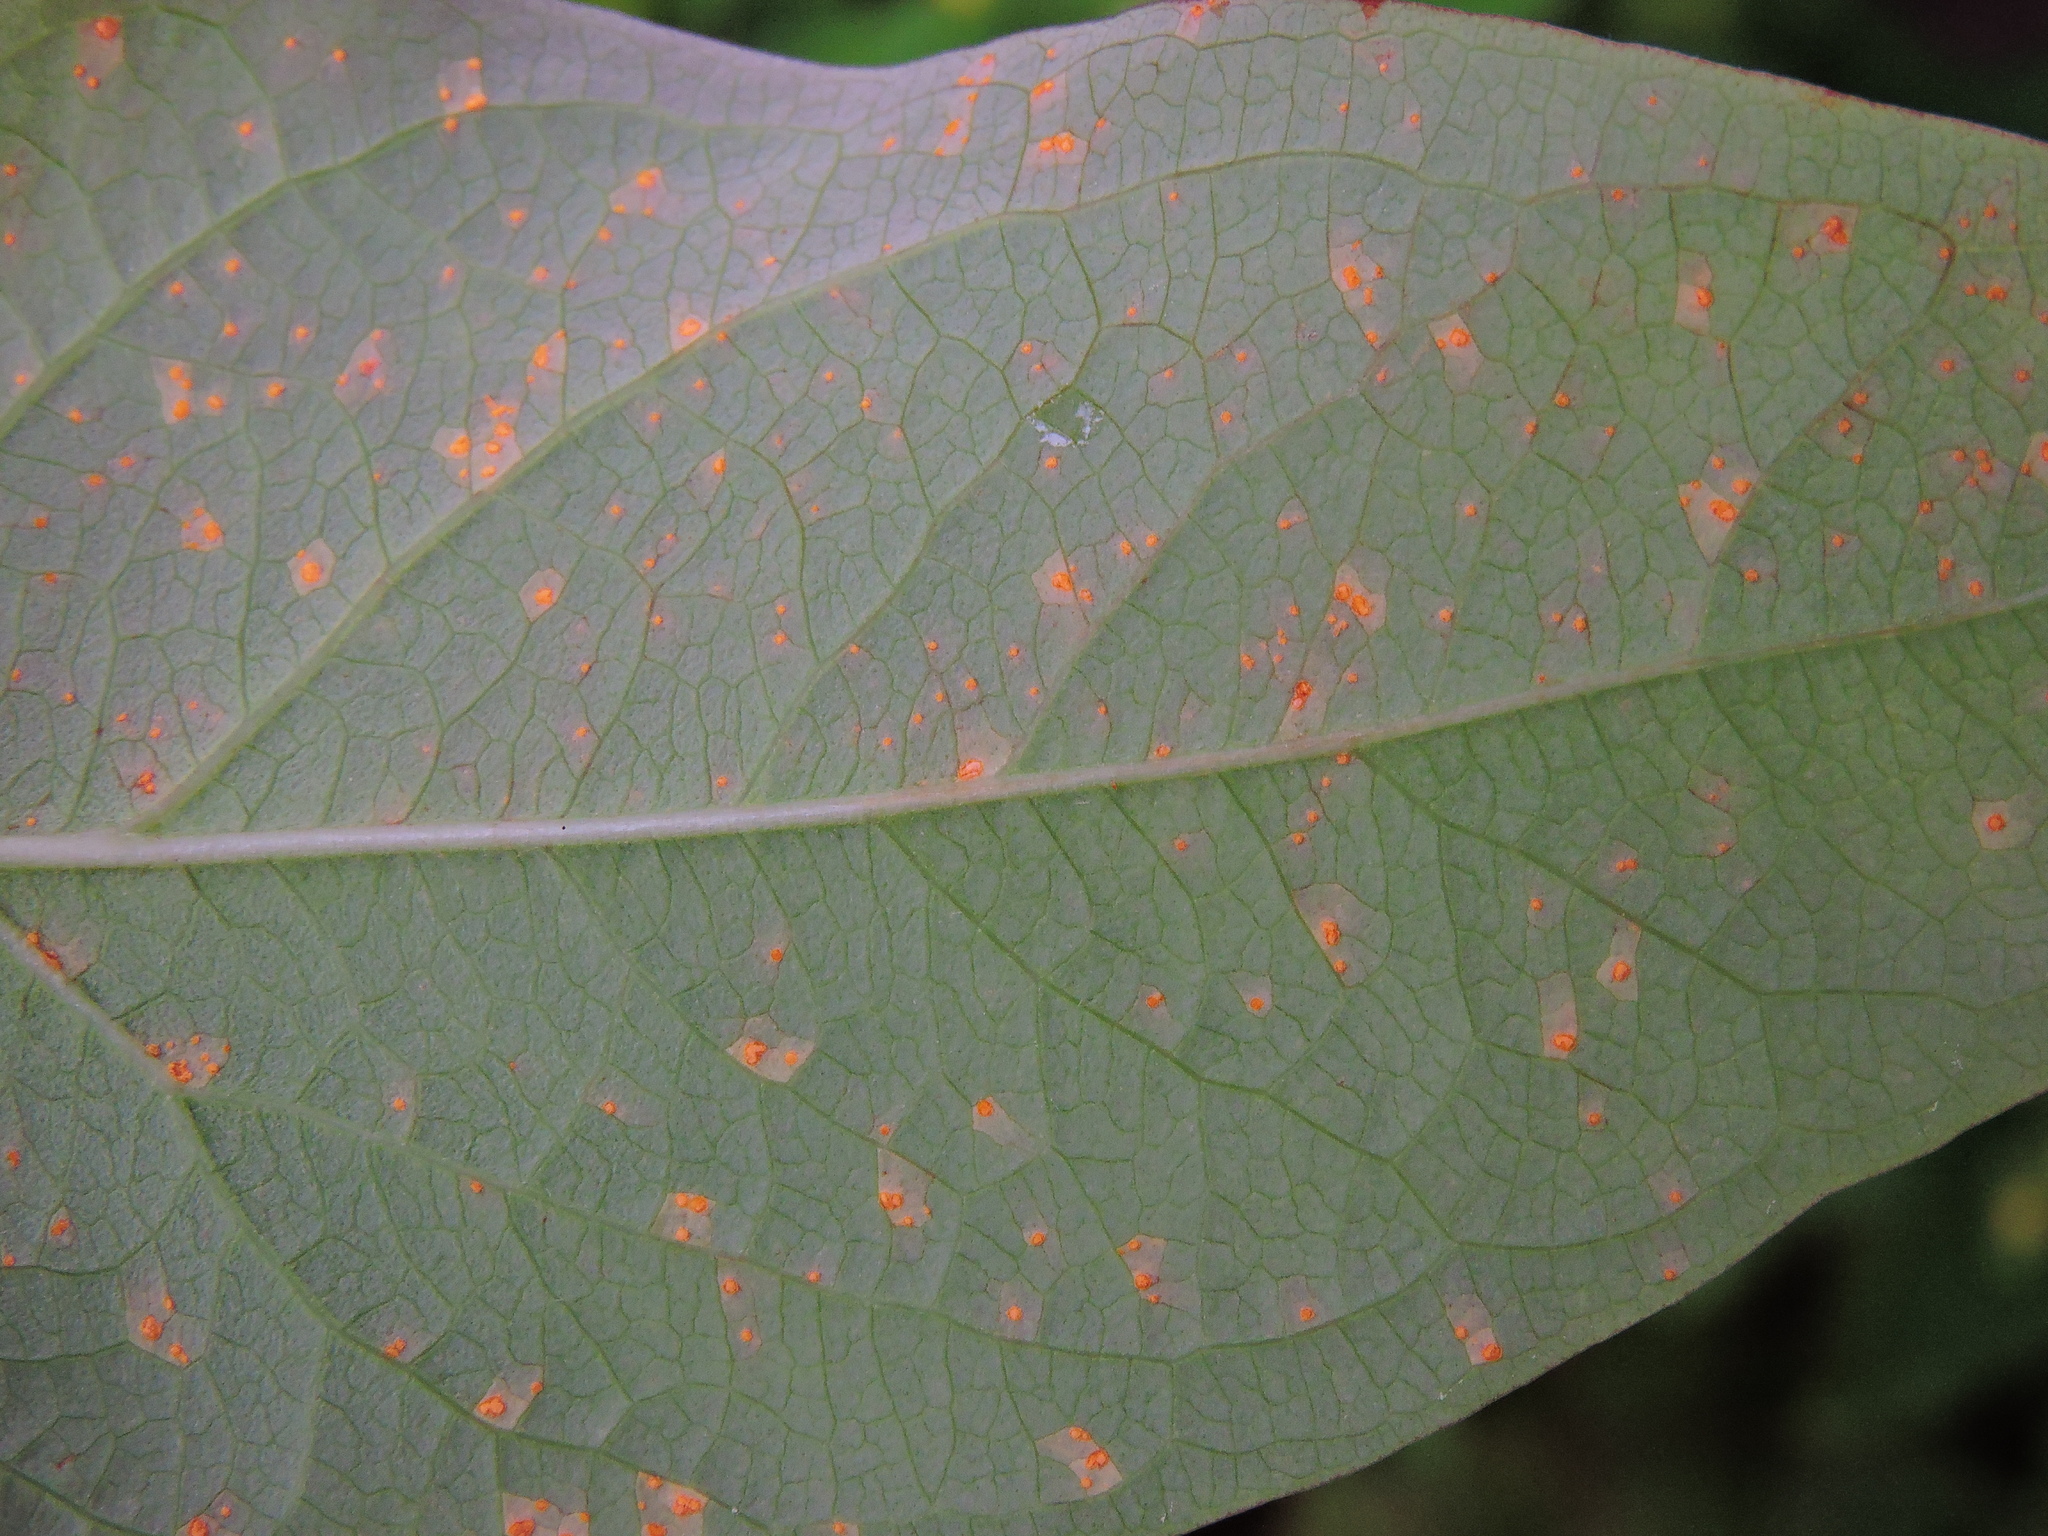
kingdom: Fungi
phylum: Basidiomycota
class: Pucciniomycetes
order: Pucciniales
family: Melampsoraceae
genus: Melampsora
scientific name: Melampsora
